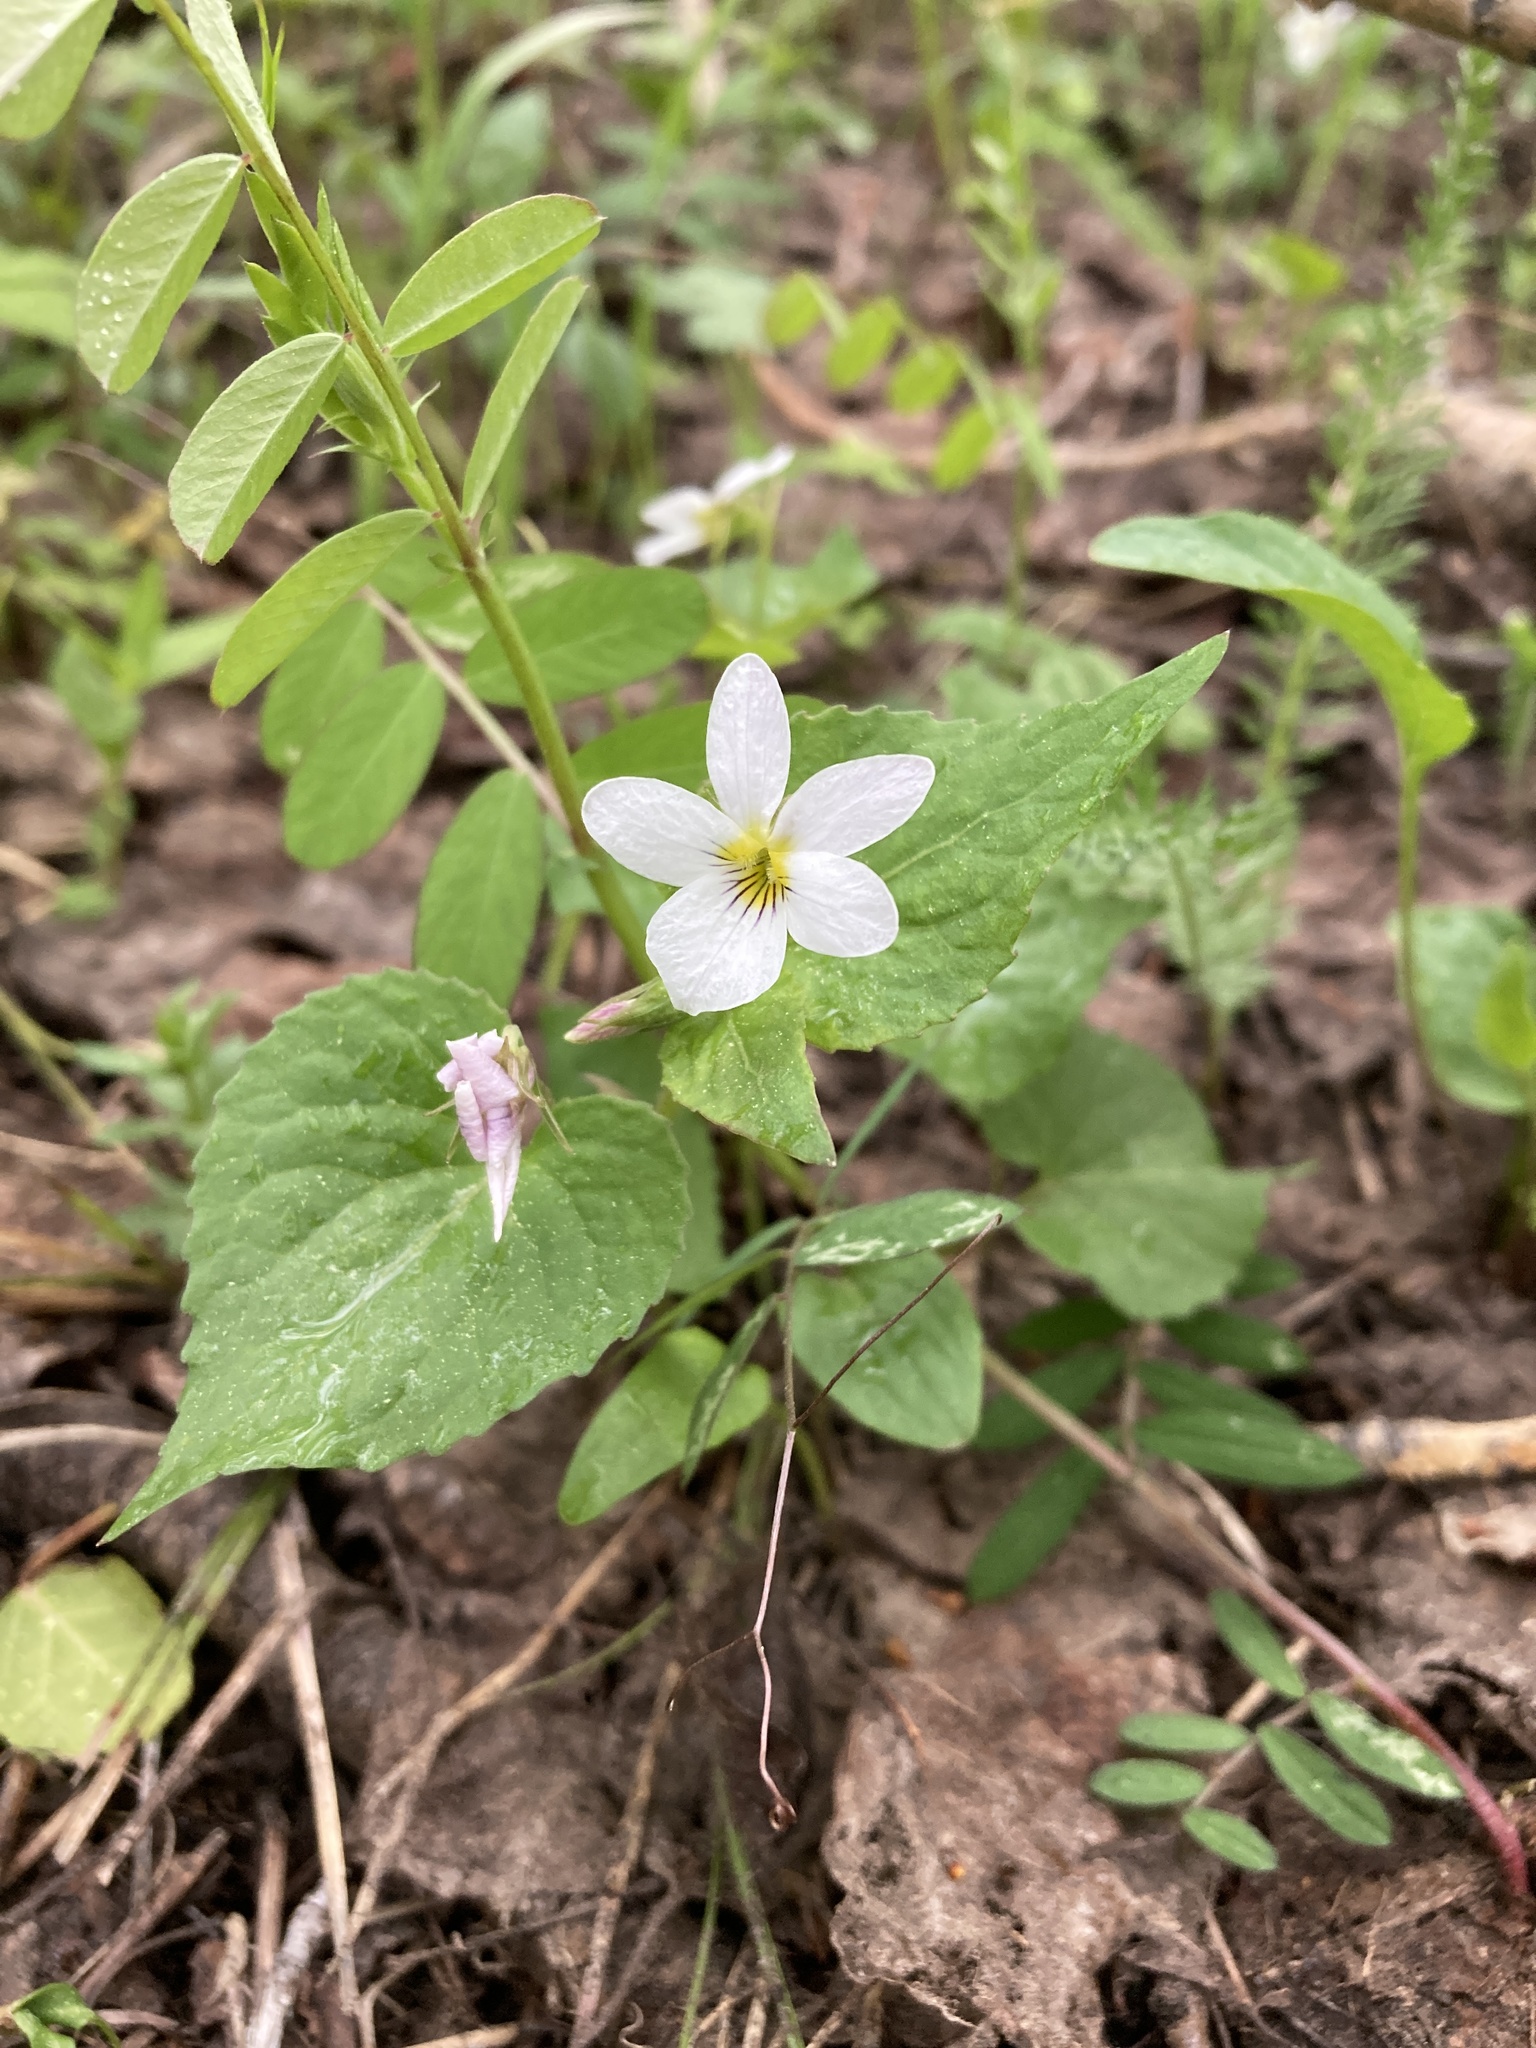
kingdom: Plantae
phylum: Tracheophyta
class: Magnoliopsida
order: Malpighiales
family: Violaceae
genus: Viola
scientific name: Viola canadensis
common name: Canada violet
